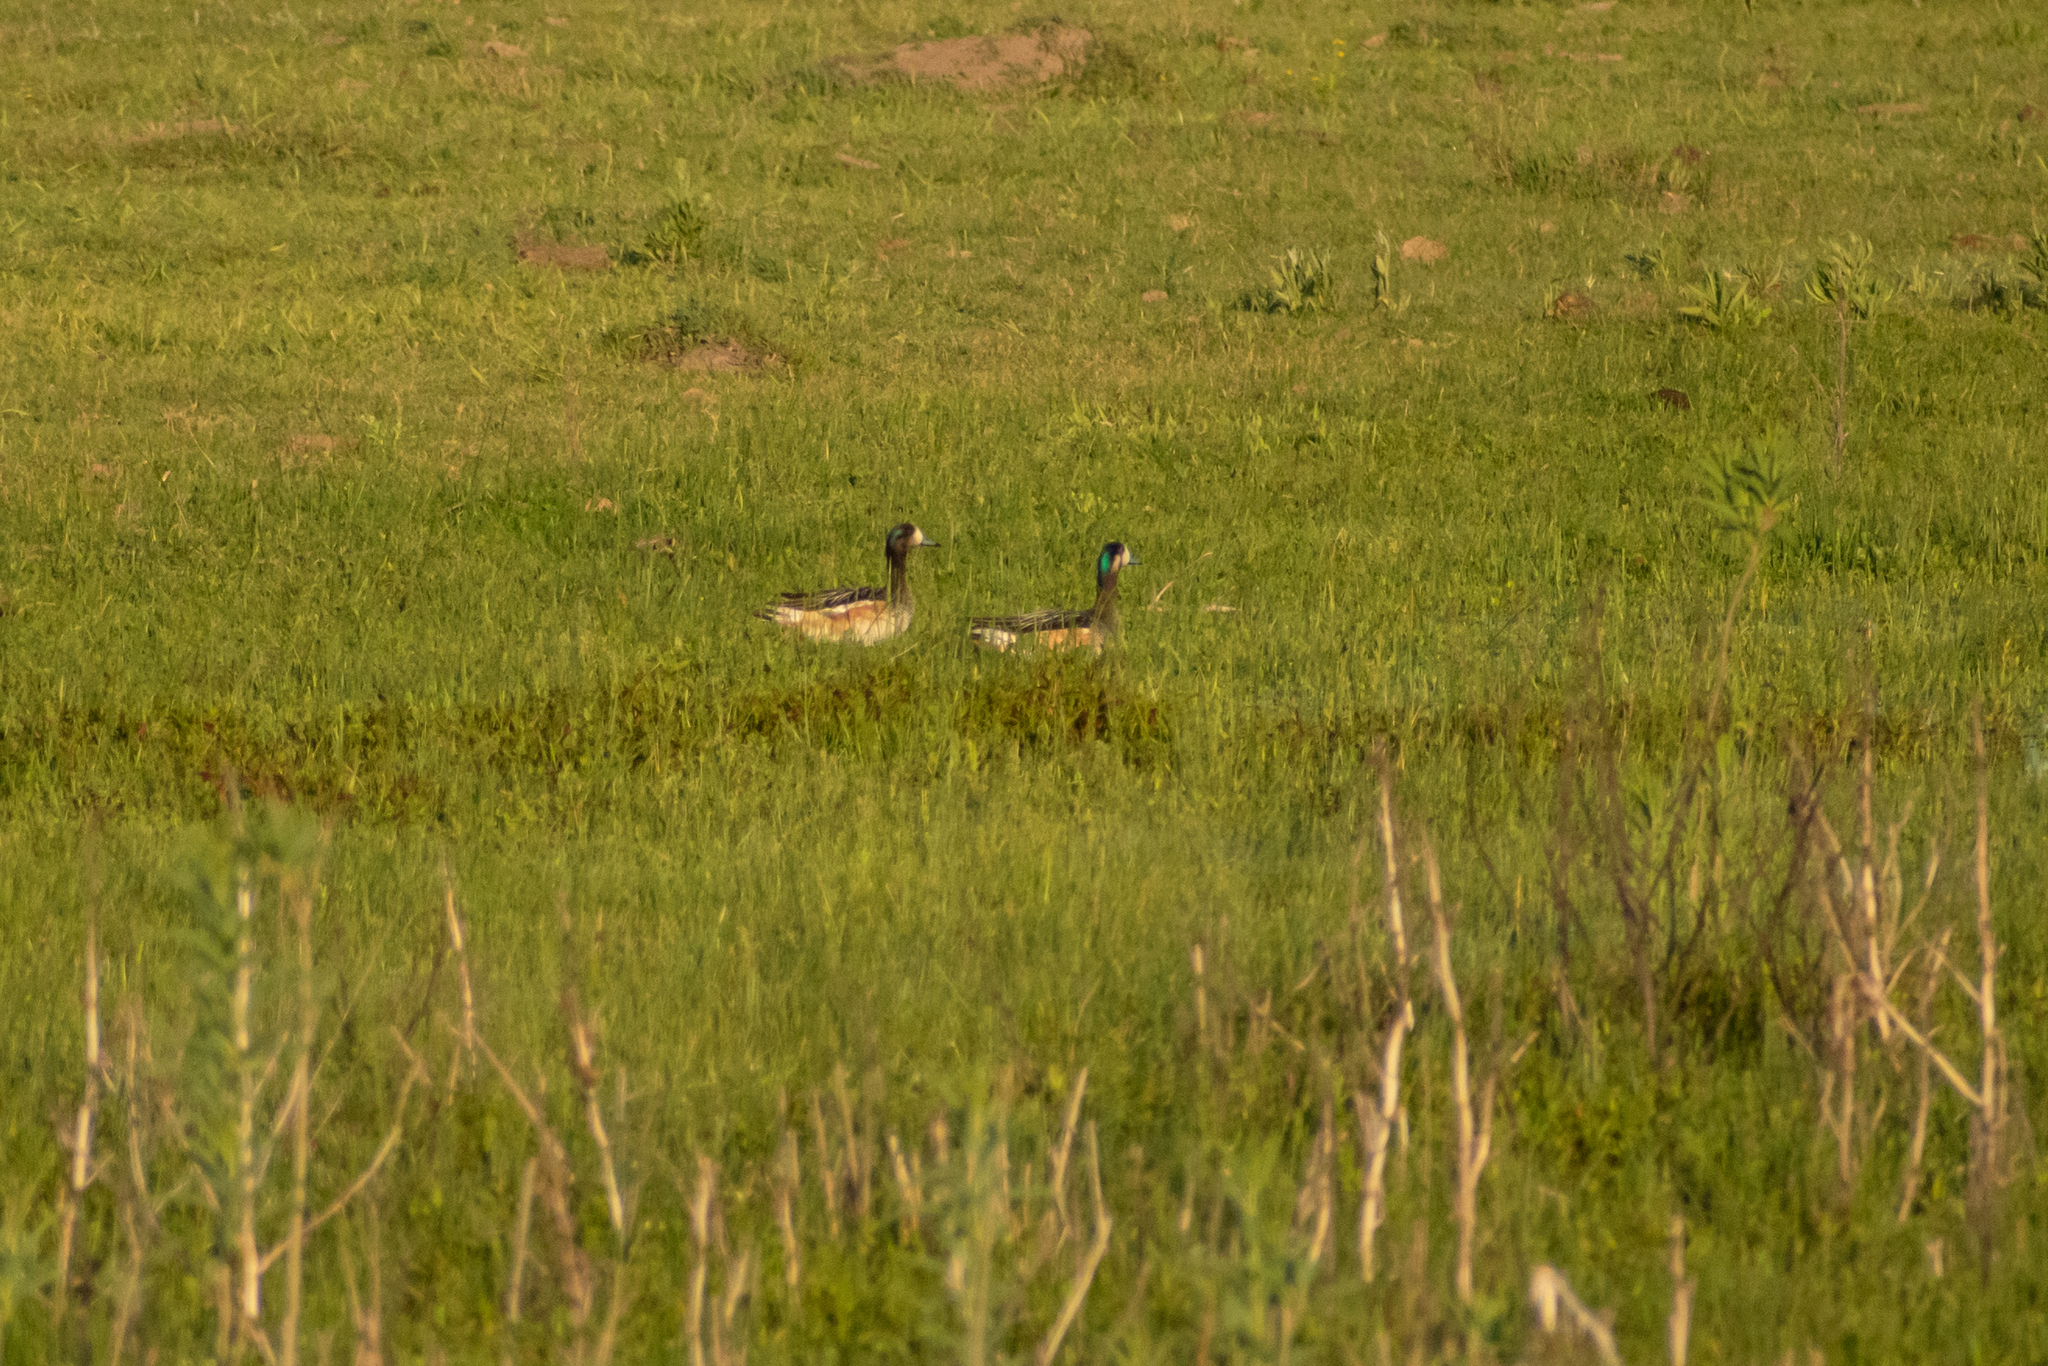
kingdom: Animalia
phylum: Chordata
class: Aves
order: Anseriformes
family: Anatidae
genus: Mareca
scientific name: Mareca sibilatrix
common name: Chiloe wigeon
